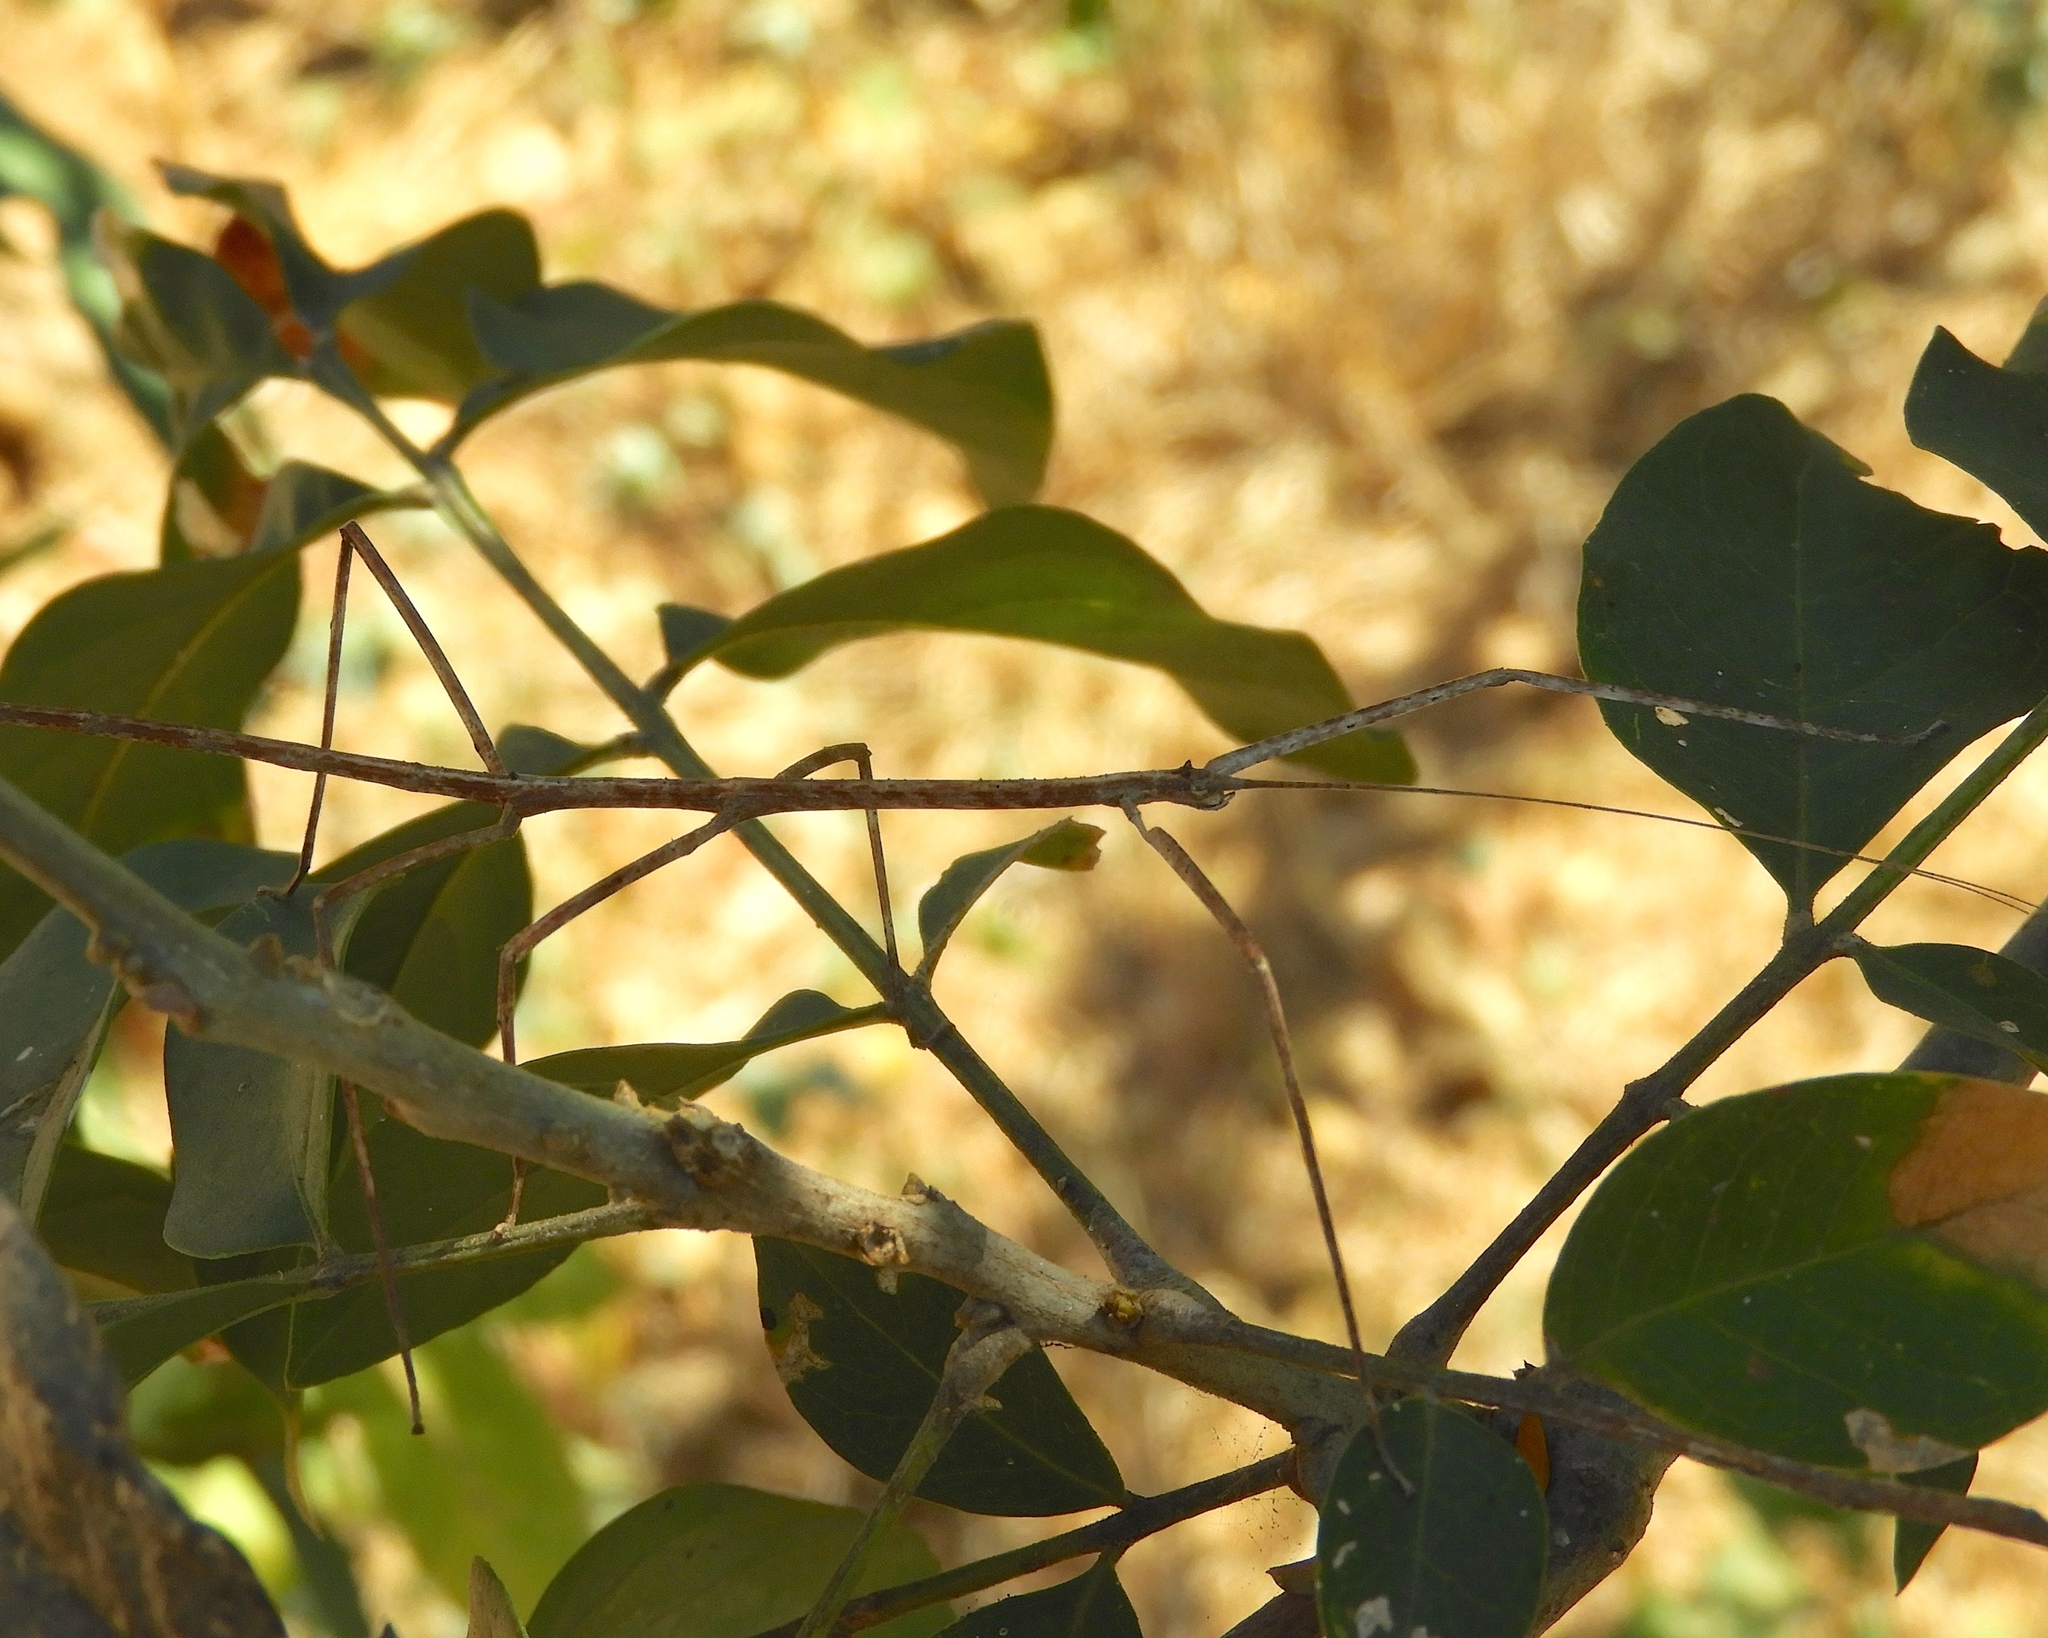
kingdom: Animalia
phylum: Arthropoda
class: Insecta
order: Phasmida
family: Diapheromeridae
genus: Phanocles
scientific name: Phanocles
